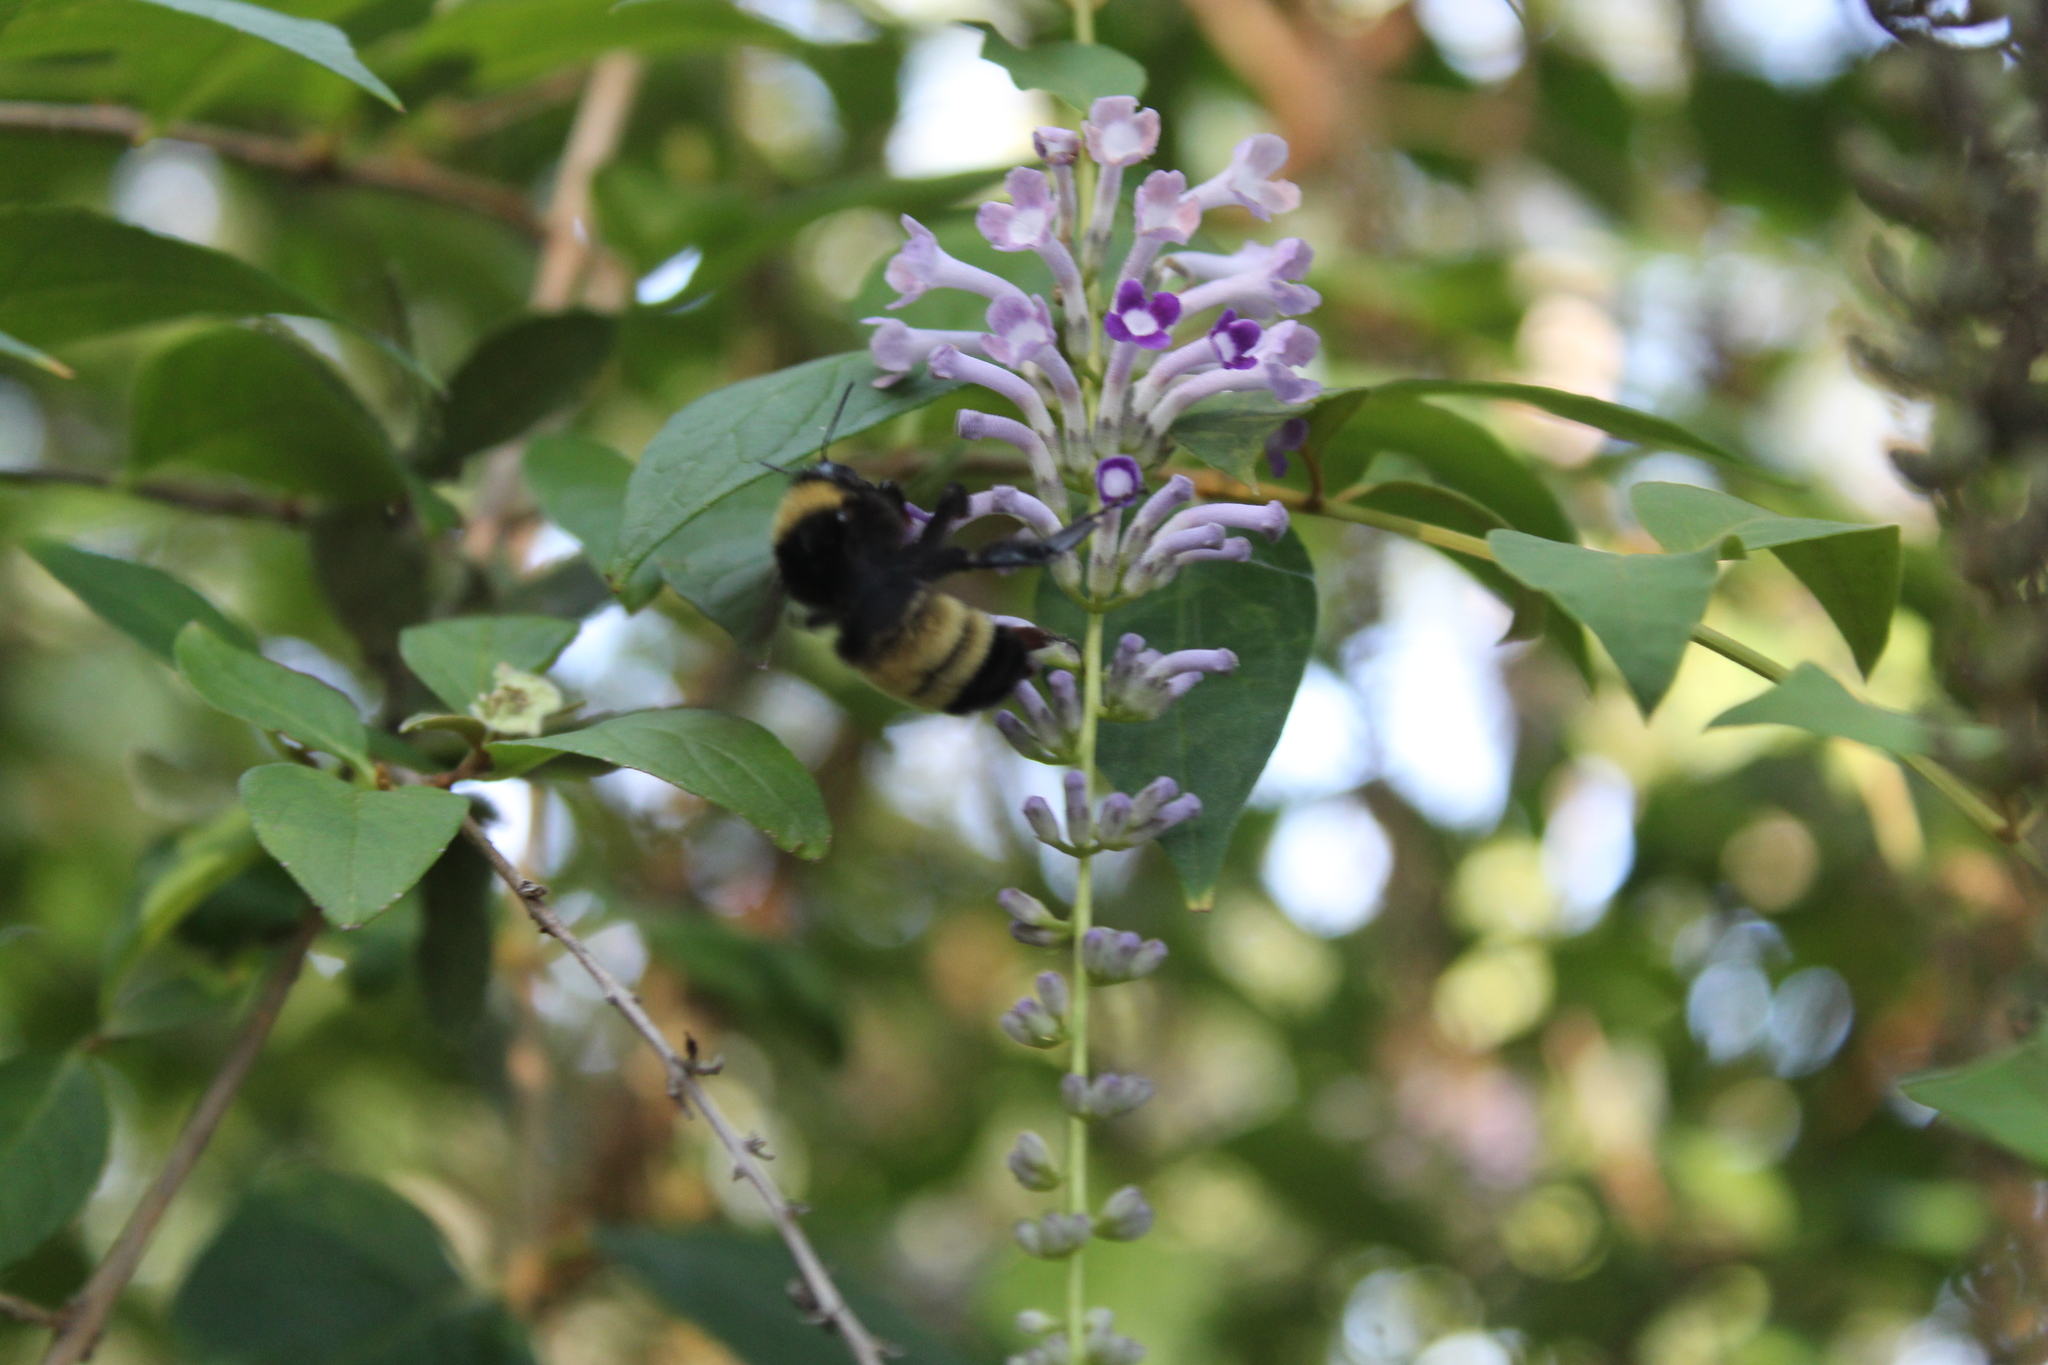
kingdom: Animalia
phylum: Arthropoda
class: Insecta
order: Hymenoptera
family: Apidae
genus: Bombus
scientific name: Bombus pensylvanicus
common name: Bumble bee
